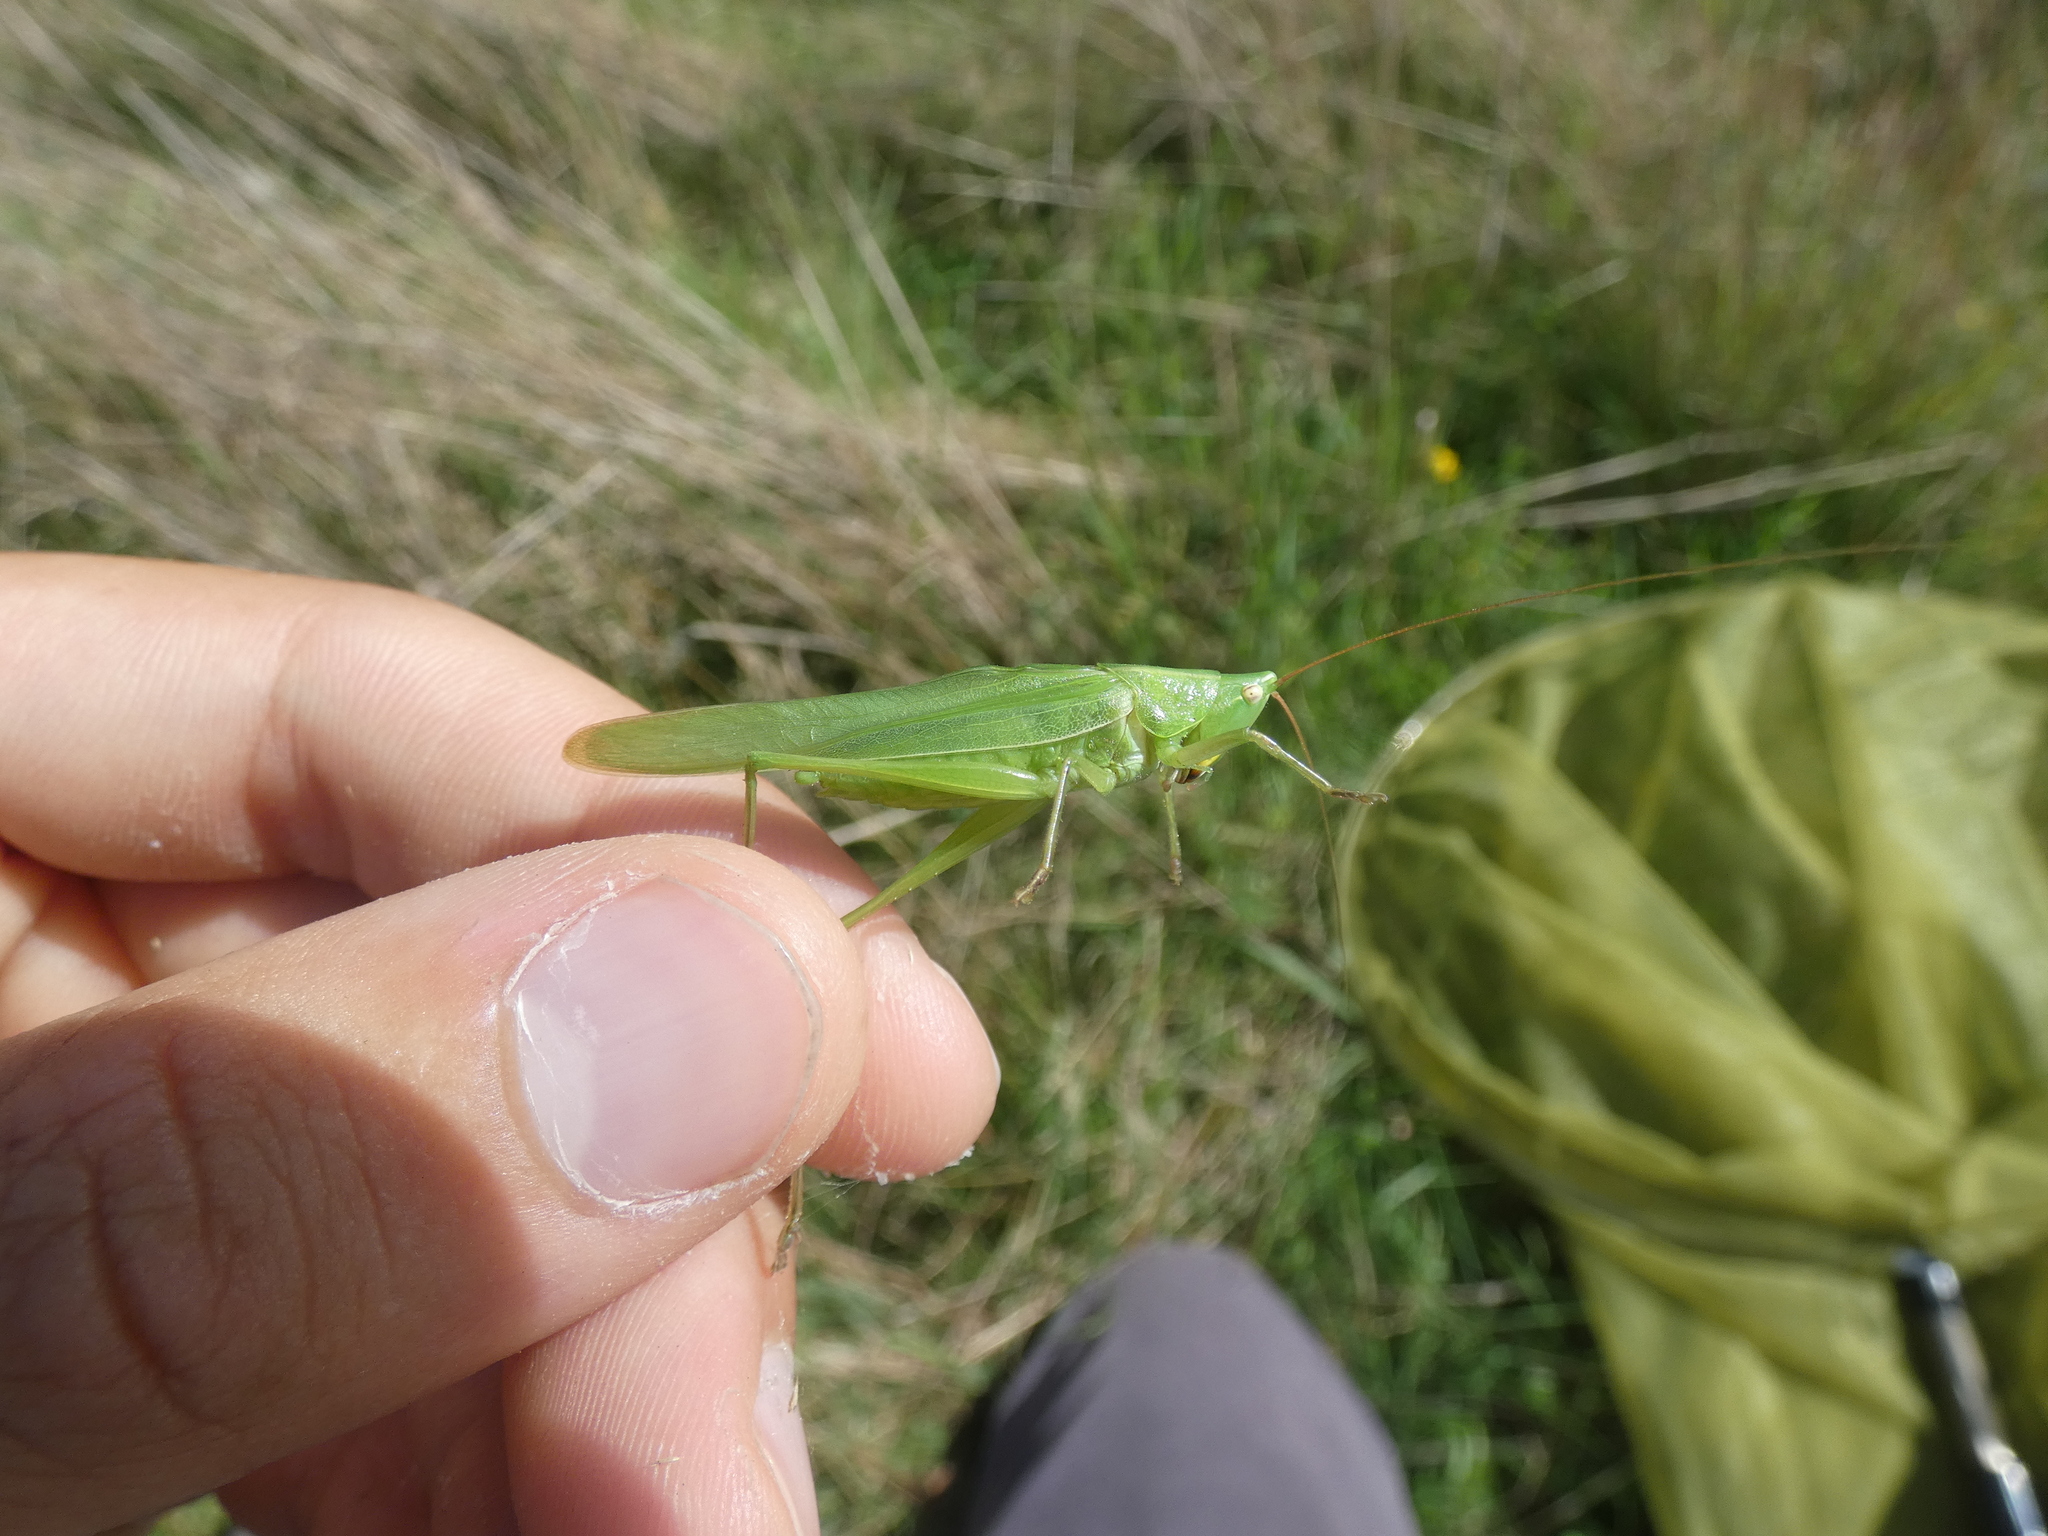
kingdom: Animalia
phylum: Arthropoda
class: Insecta
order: Orthoptera
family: Tettigoniidae
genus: Ruspolia
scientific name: Ruspolia nitidula
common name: Large conehead
